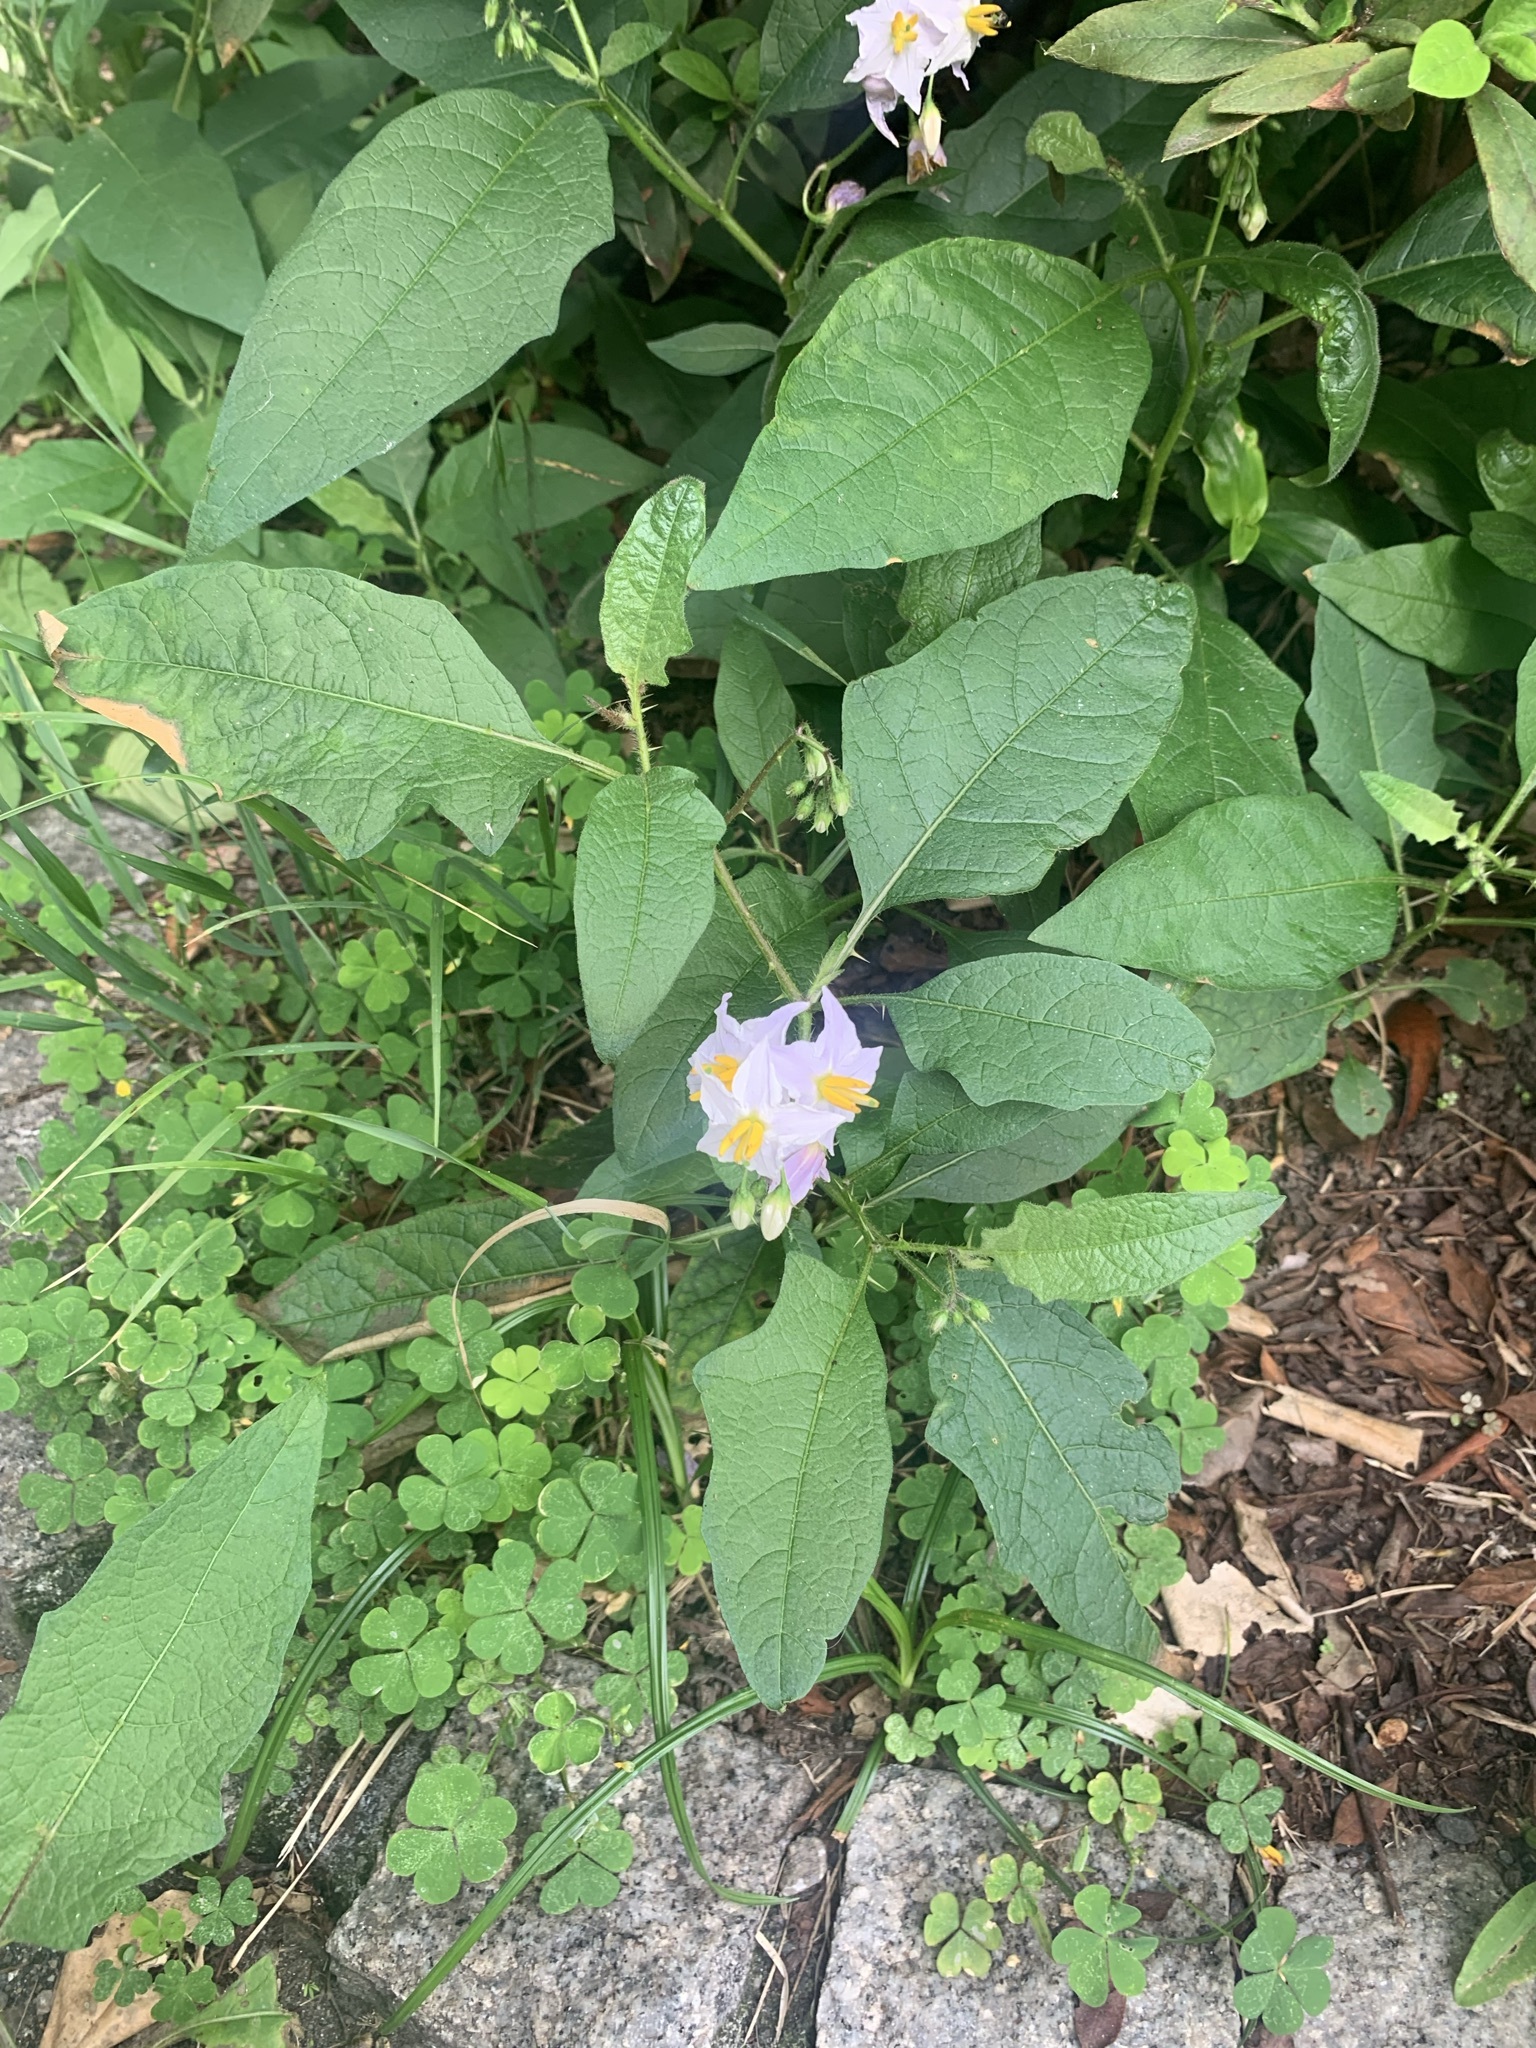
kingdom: Plantae
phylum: Tracheophyta
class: Magnoliopsida
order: Solanales
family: Solanaceae
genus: Solanum
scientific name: Solanum carolinense
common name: Horse-nettle
